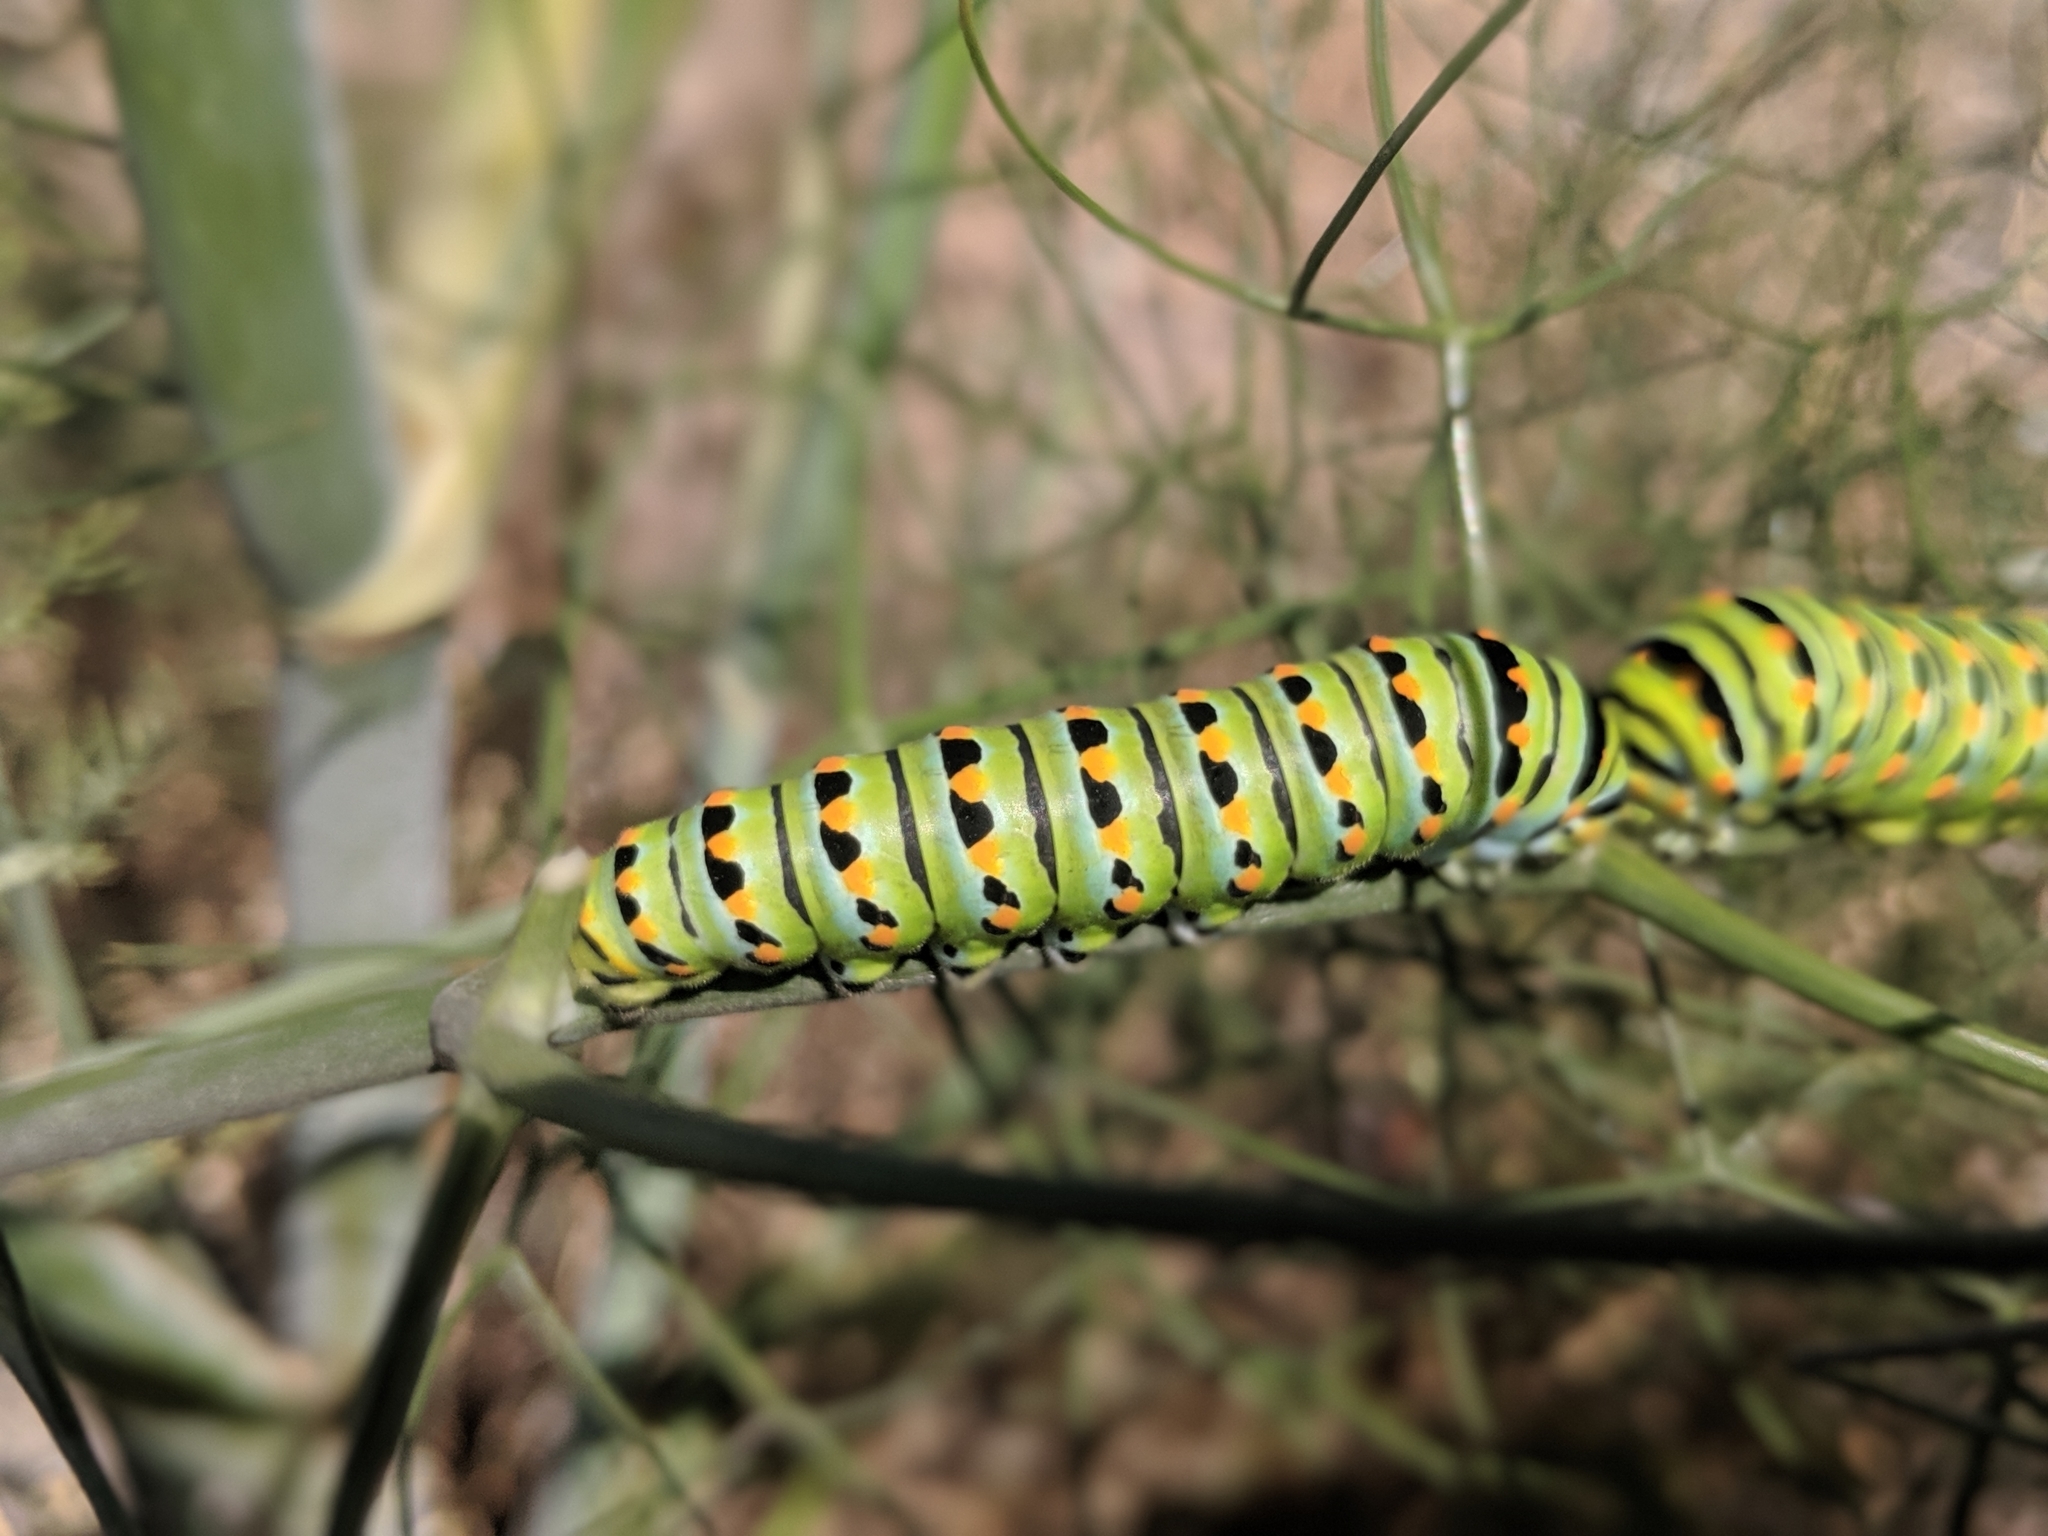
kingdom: Animalia
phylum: Arthropoda
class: Insecta
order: Lepidoptera
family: Papilionidae
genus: Papilio
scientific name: Papilio zelicaon
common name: Anise swallowtail
